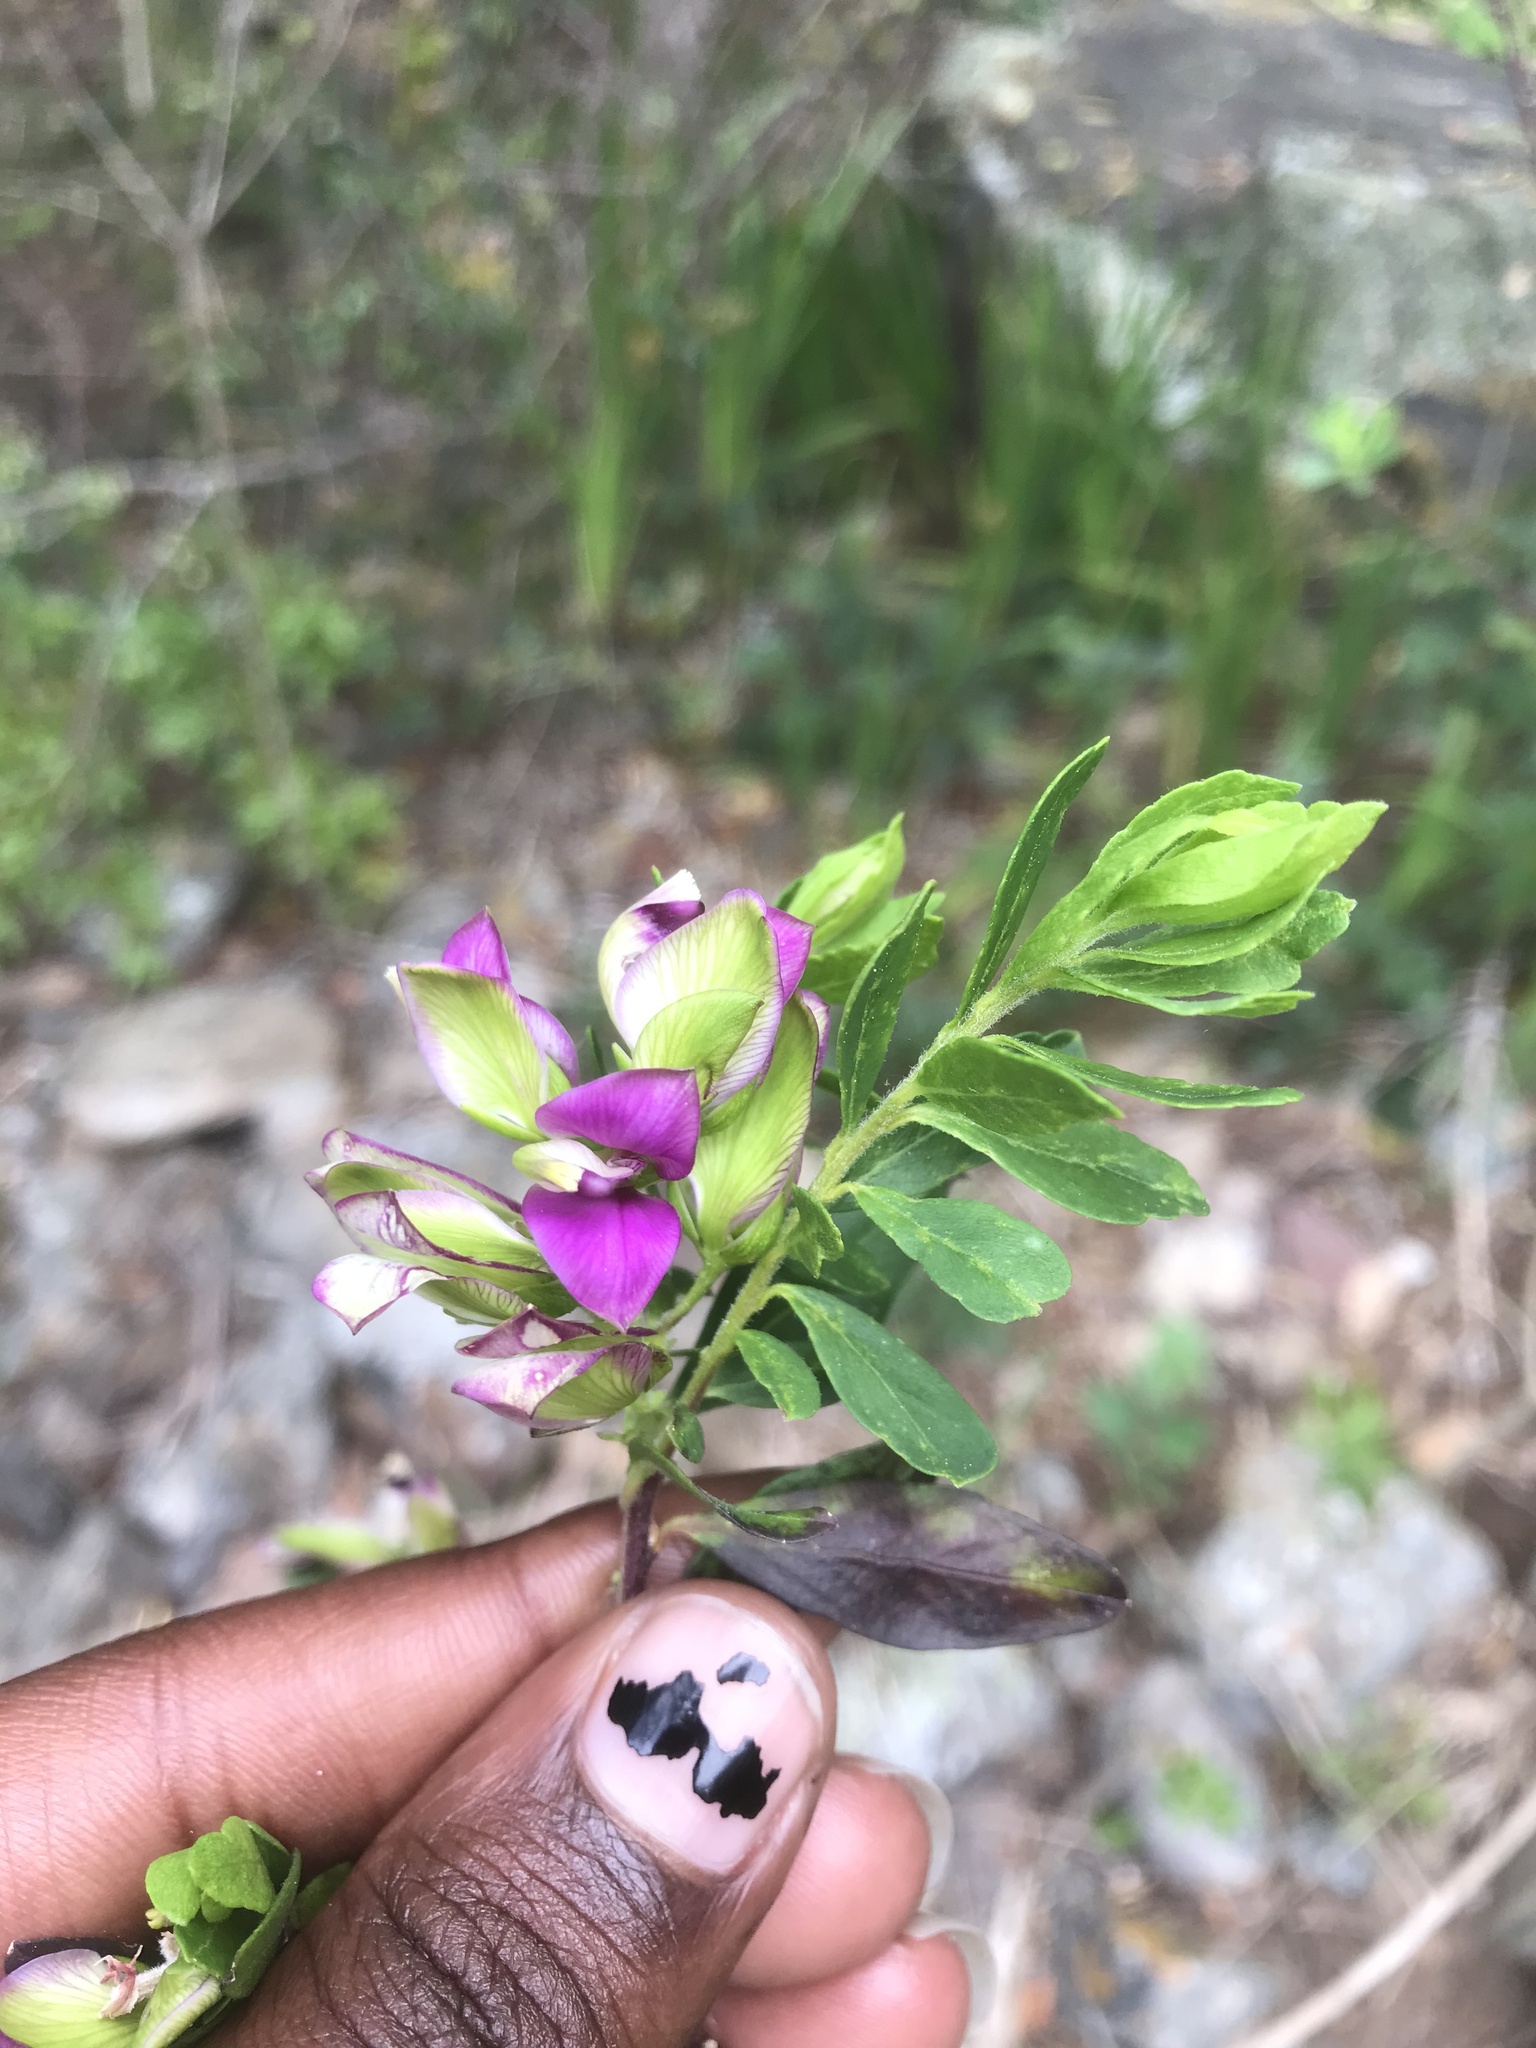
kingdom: Plantae
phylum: Tracheophyta
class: Magnoliopsida
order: Fabales
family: Polygalaceae
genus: Polygala
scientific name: Polygala myrtifolia
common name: Myrtle-leaf milkwort
